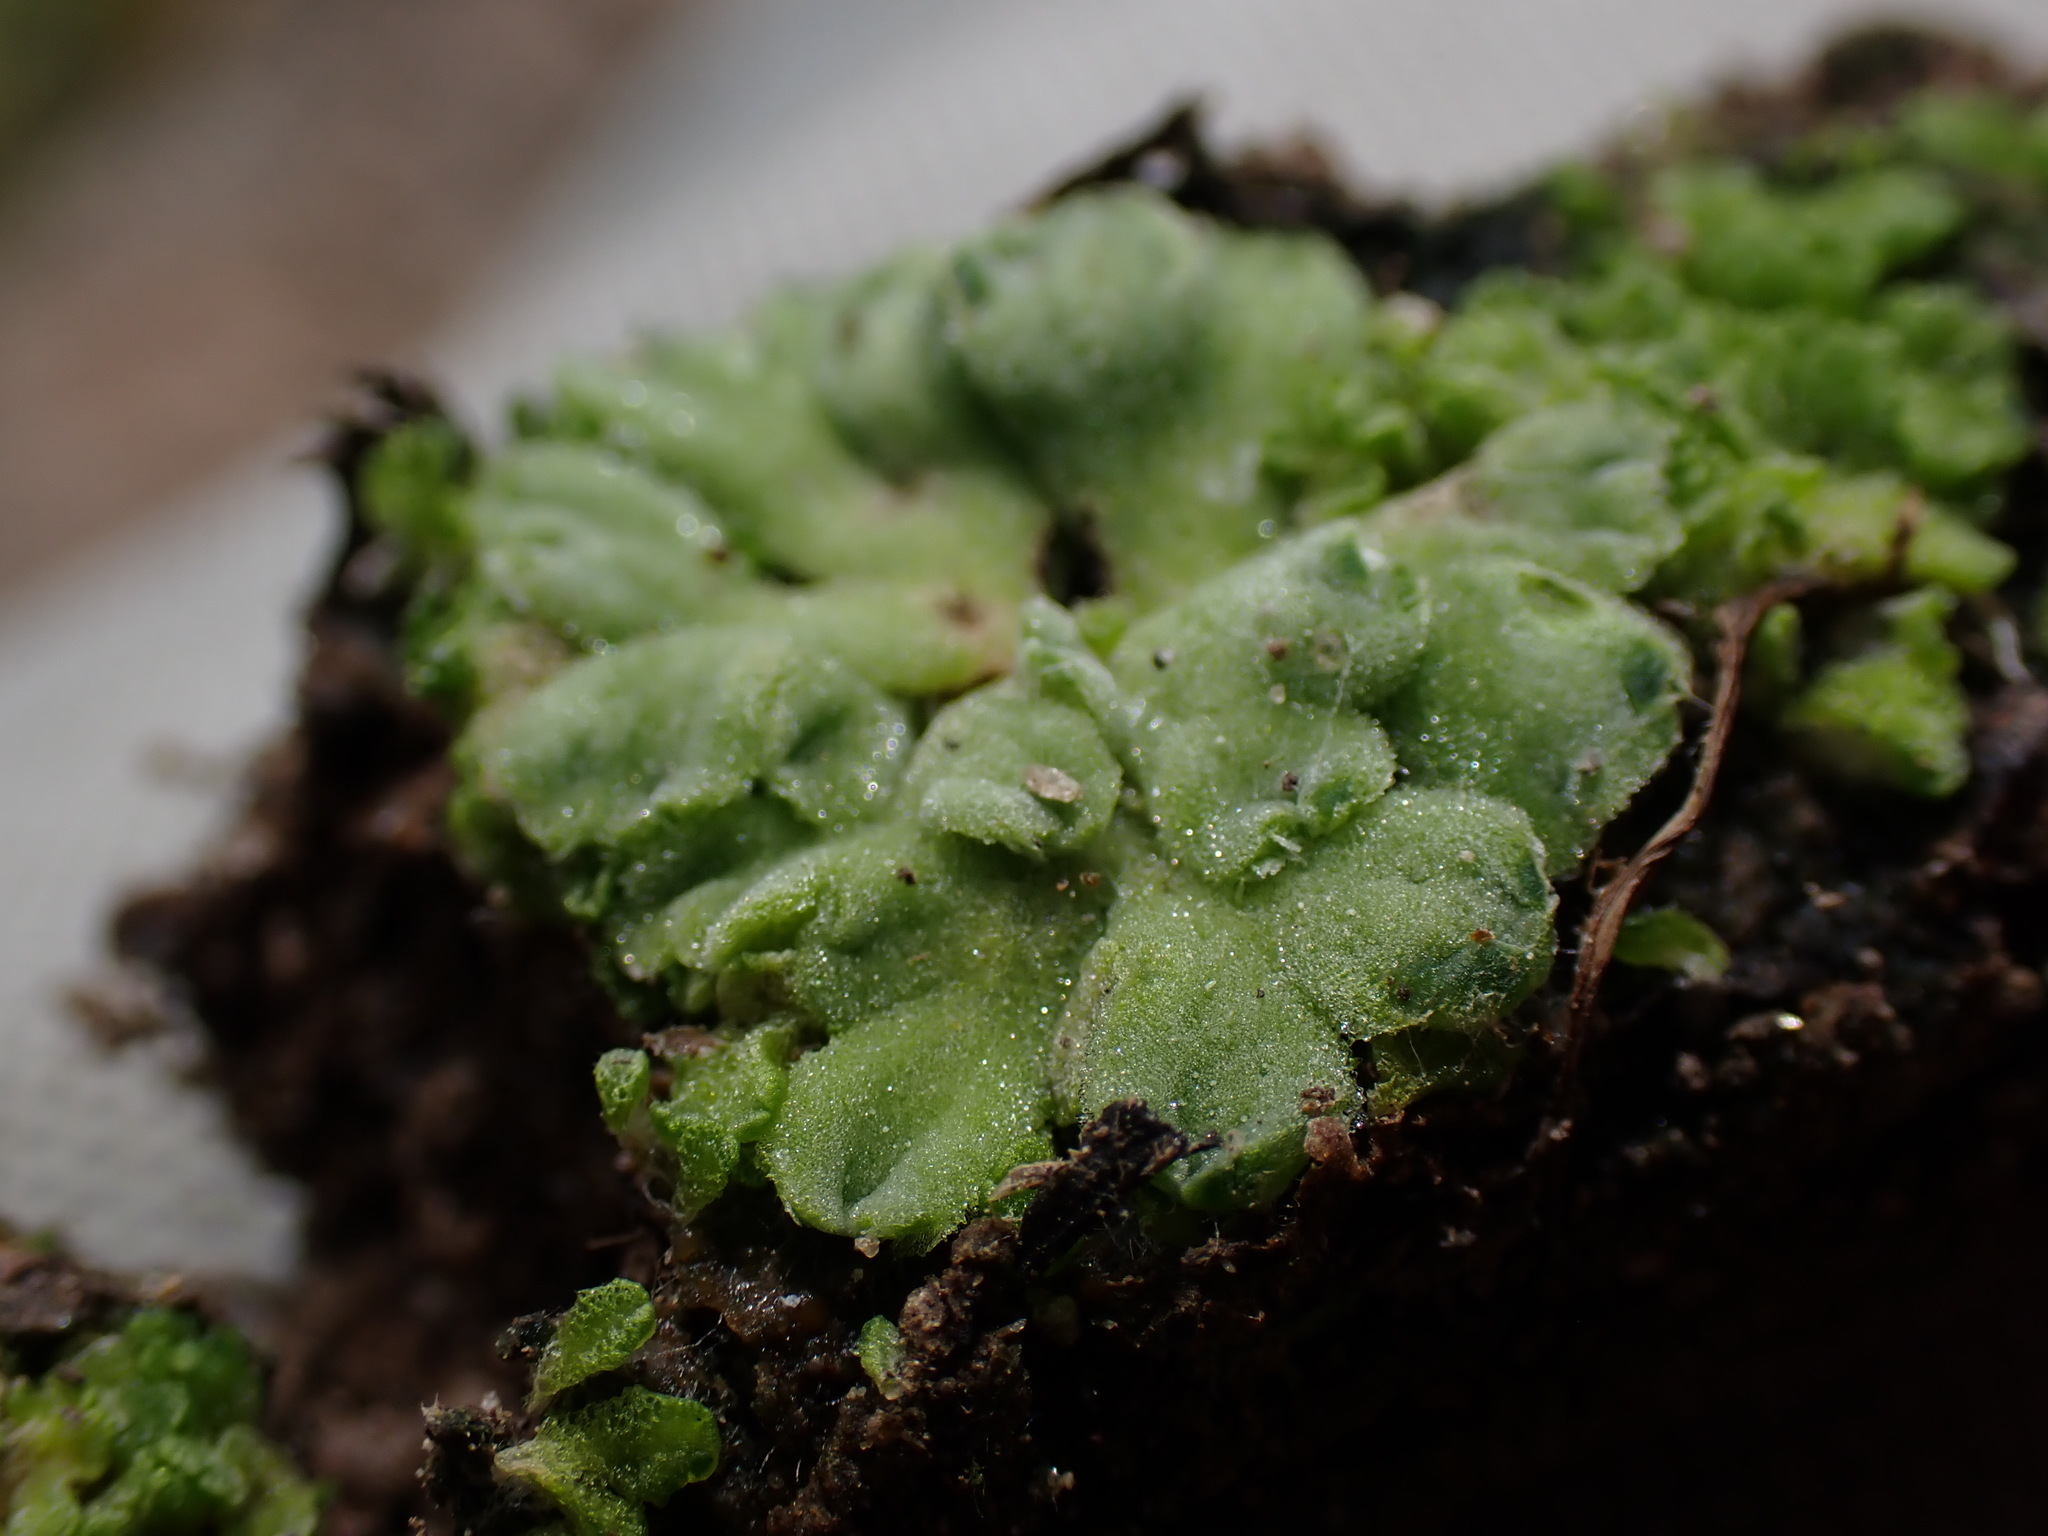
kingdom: Plantae
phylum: Marchantiophyta
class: Marchantiopsida
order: Marchantiales
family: Ricciaceae
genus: Riccia
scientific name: Riccia cavernosa
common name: Cavernous crystalwort
